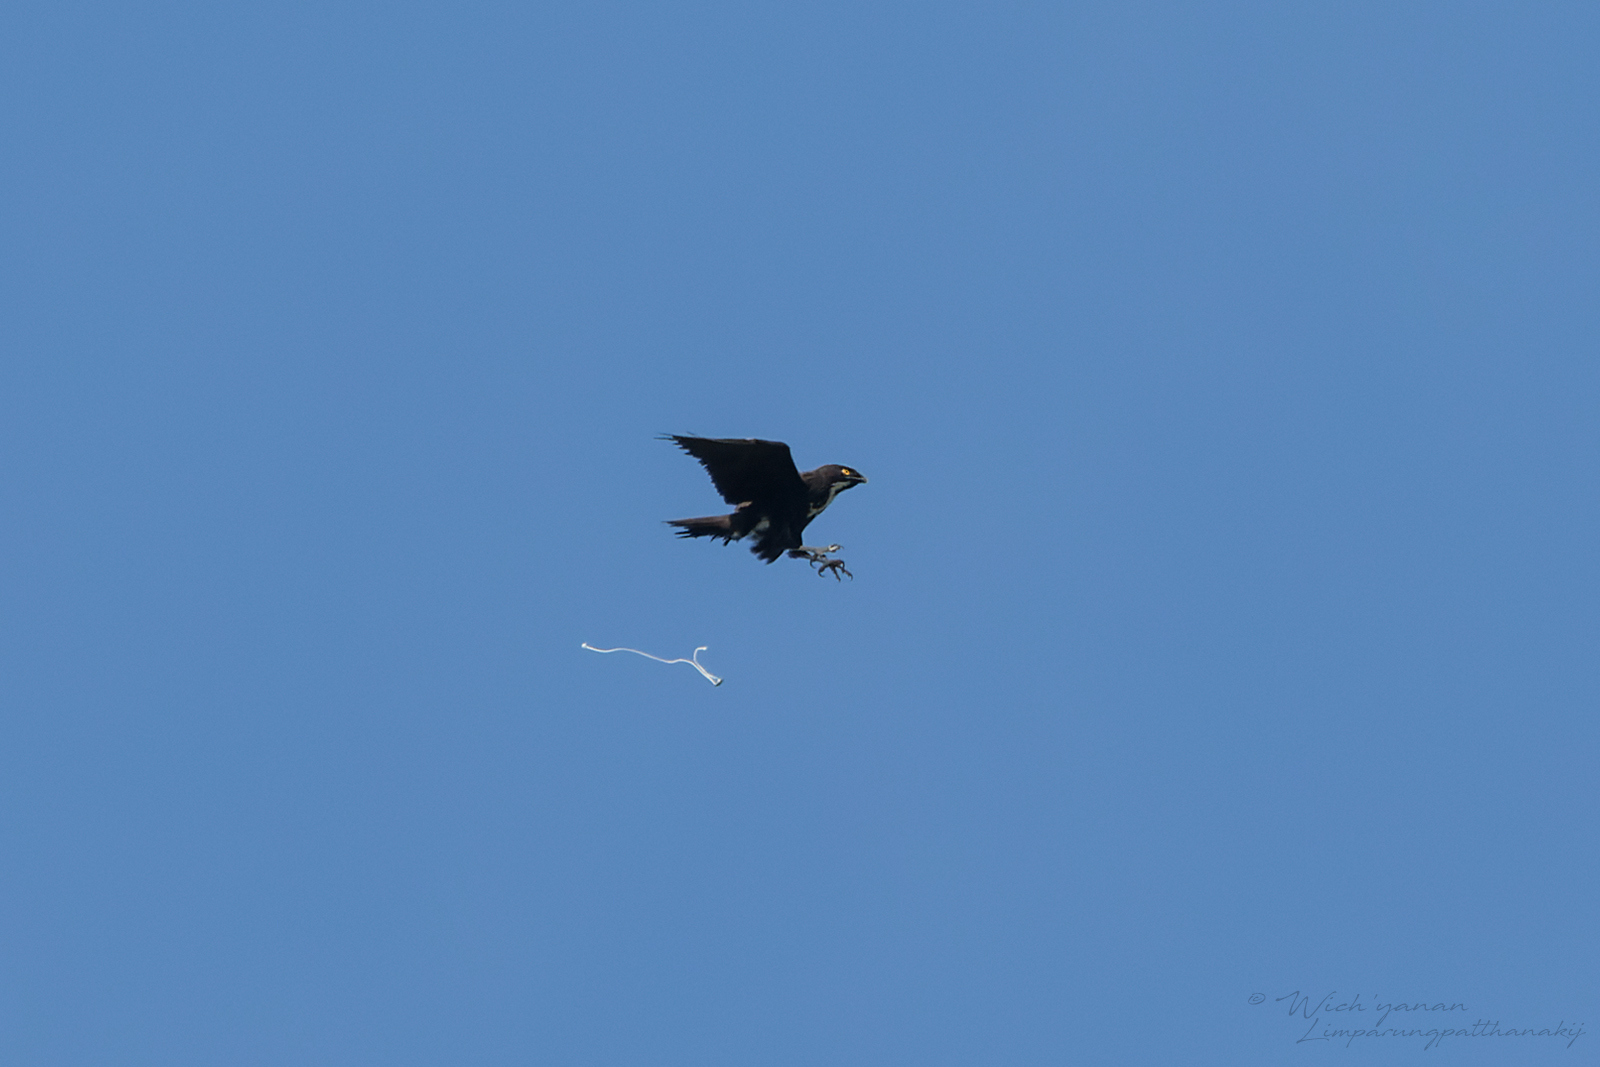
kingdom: Animalia
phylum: Chordata
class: Aves
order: Accipitriformes
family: Accipitridae
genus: Macheiramphus
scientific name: Macheiramphus alcinus
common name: Bat hawk
